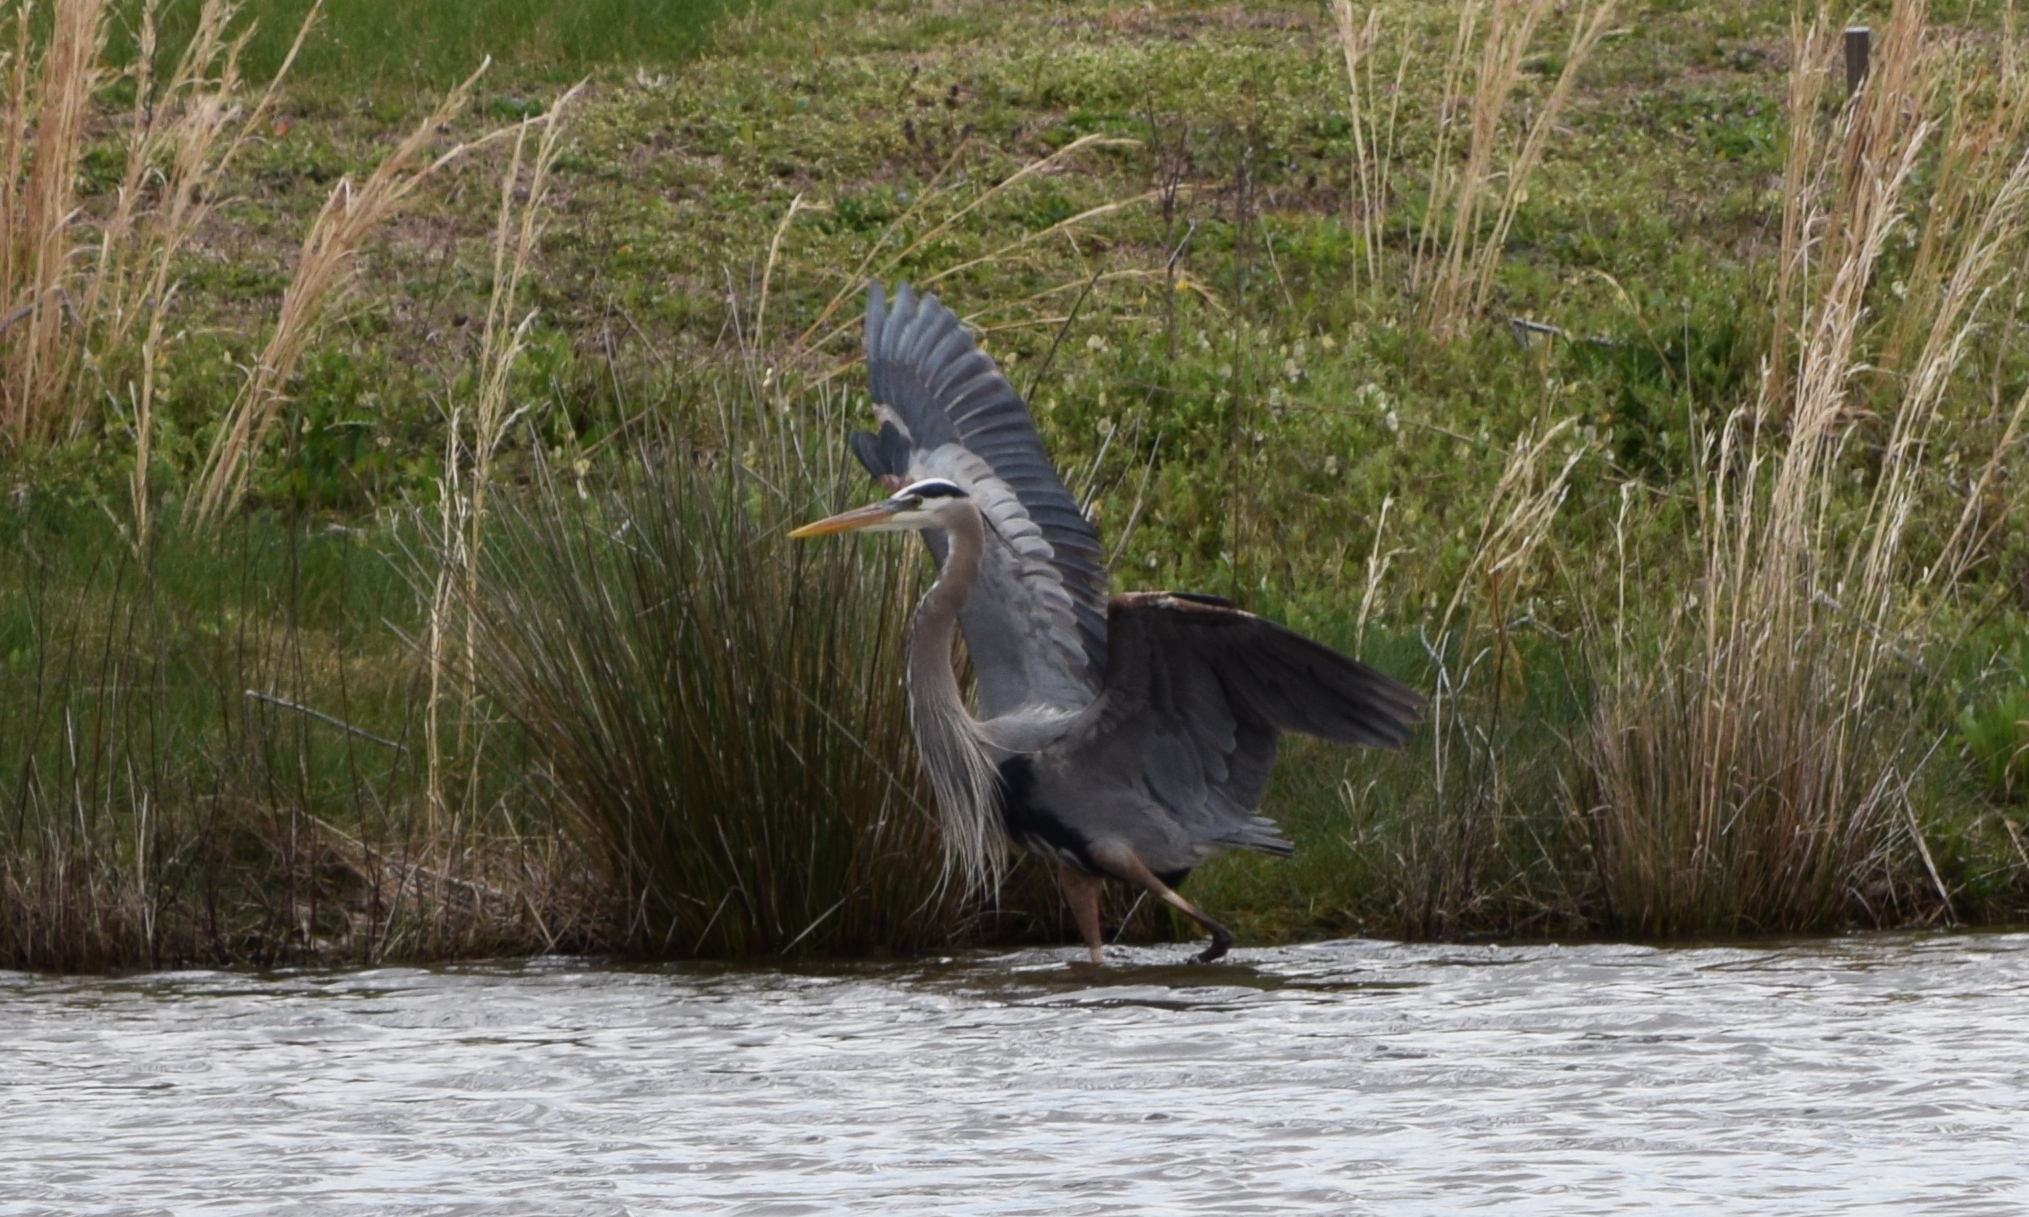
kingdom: Animalia
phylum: Chordata
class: Aves
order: Pelecaniformes
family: Ardeidae
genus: Ardea
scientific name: Ardea herodias
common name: Great blue heron
